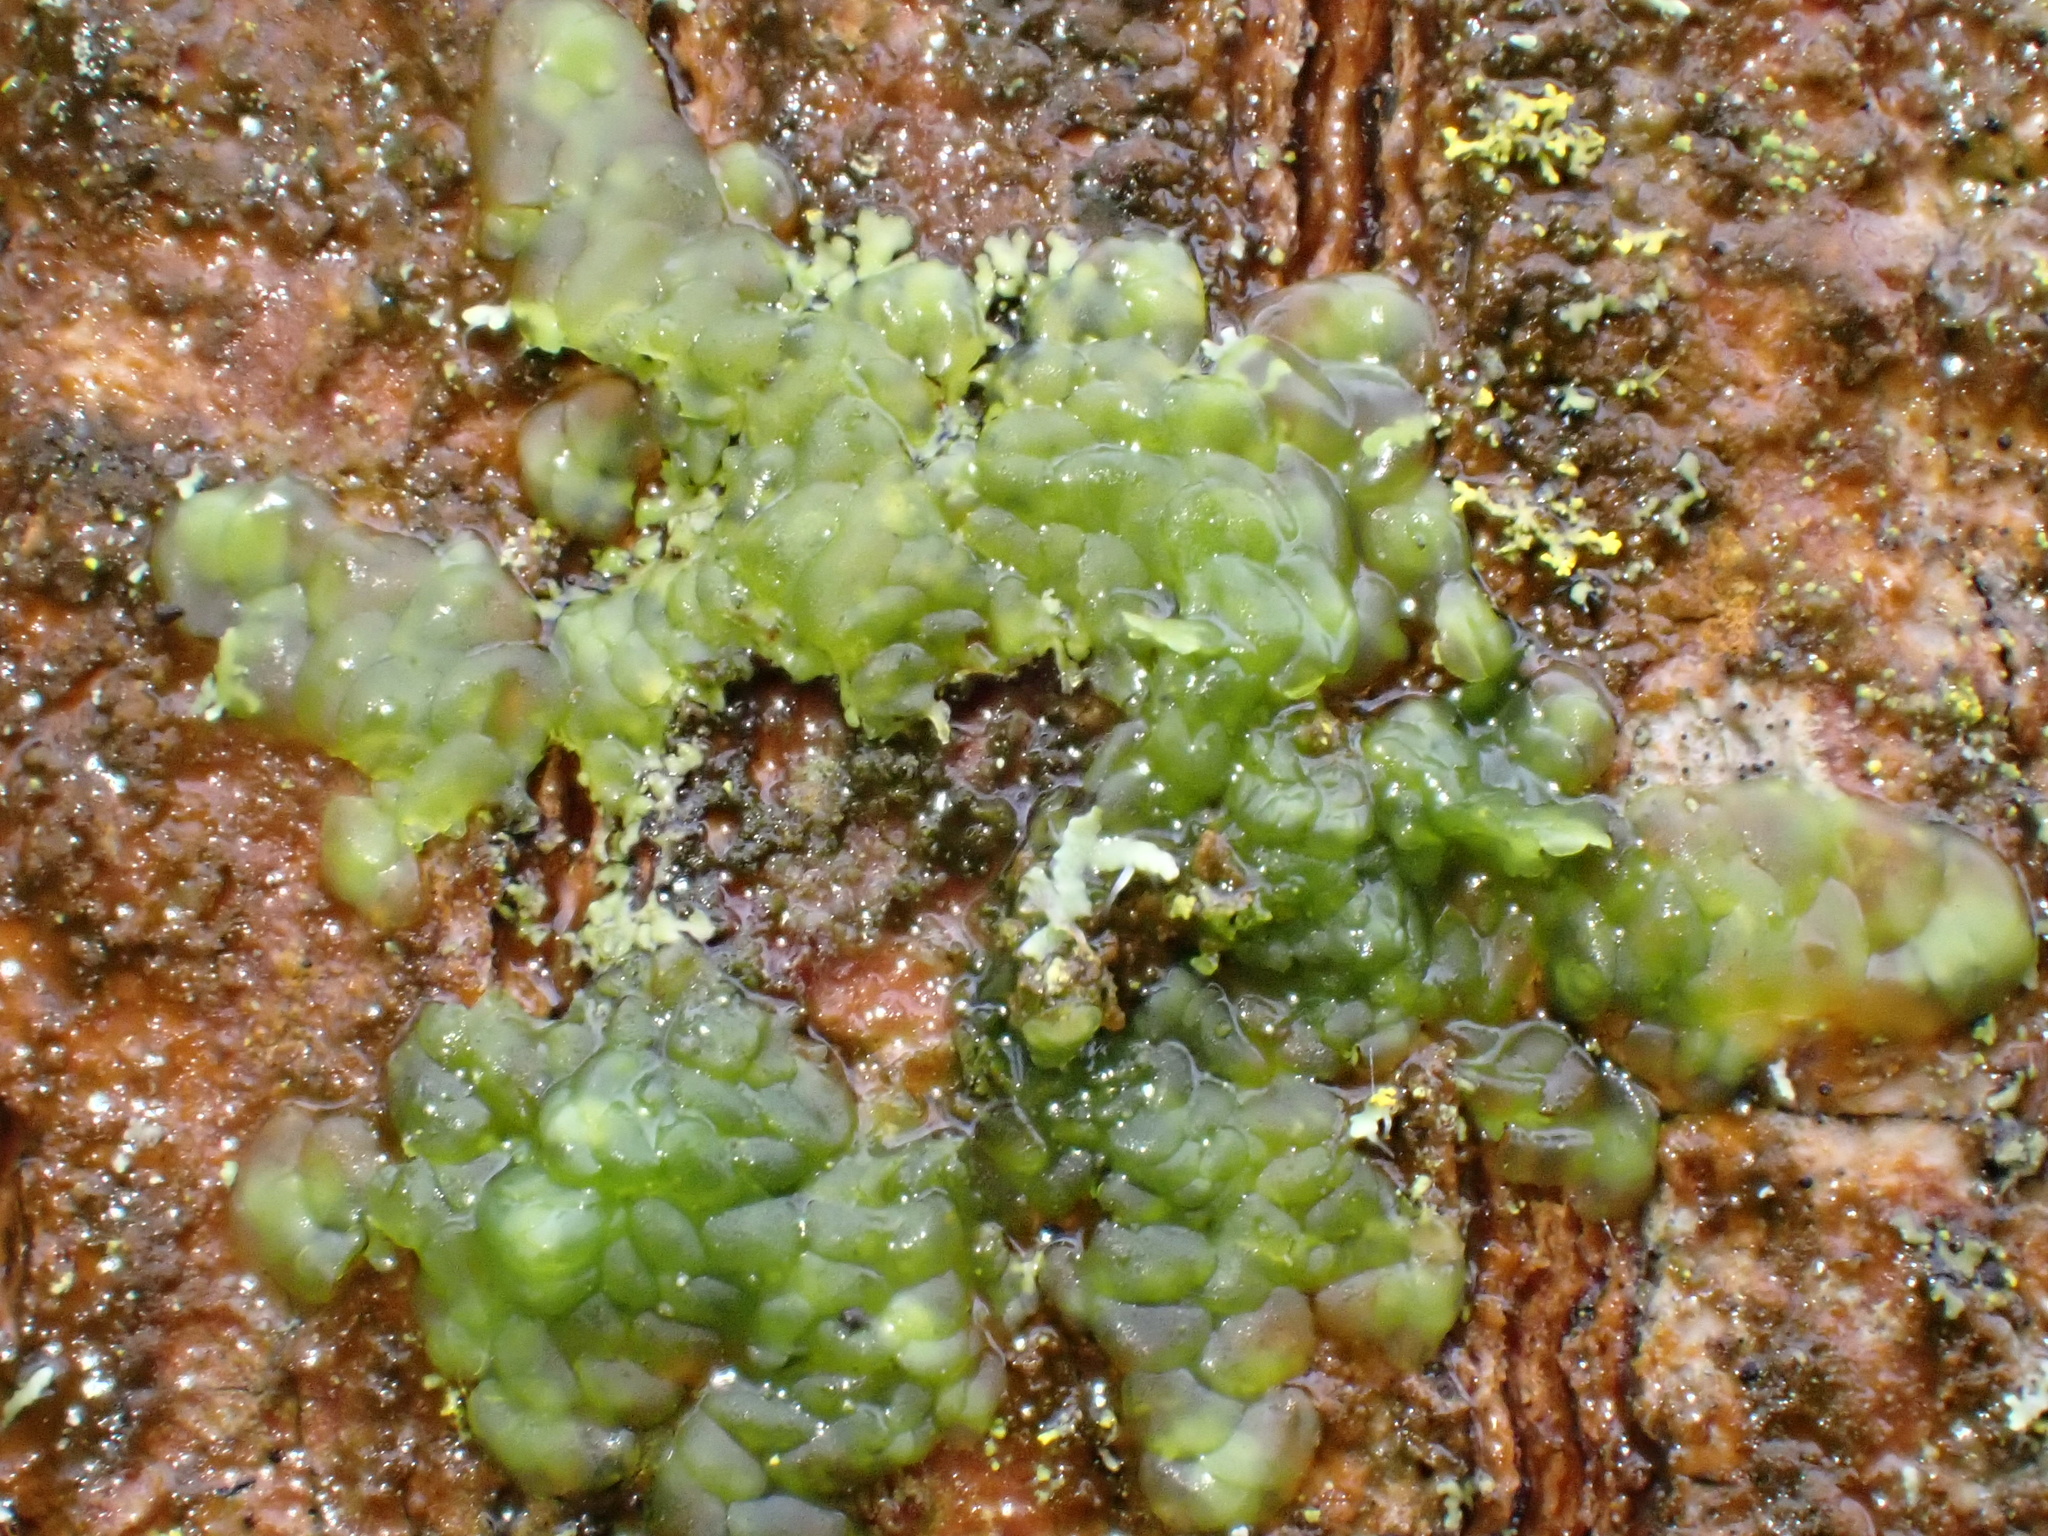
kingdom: Plantae
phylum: Marchantiophyta
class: Jungermanniopsida
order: Porellales
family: Radulaceae
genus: Radula
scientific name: Radula complanata
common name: Flat-leaved scalewort
